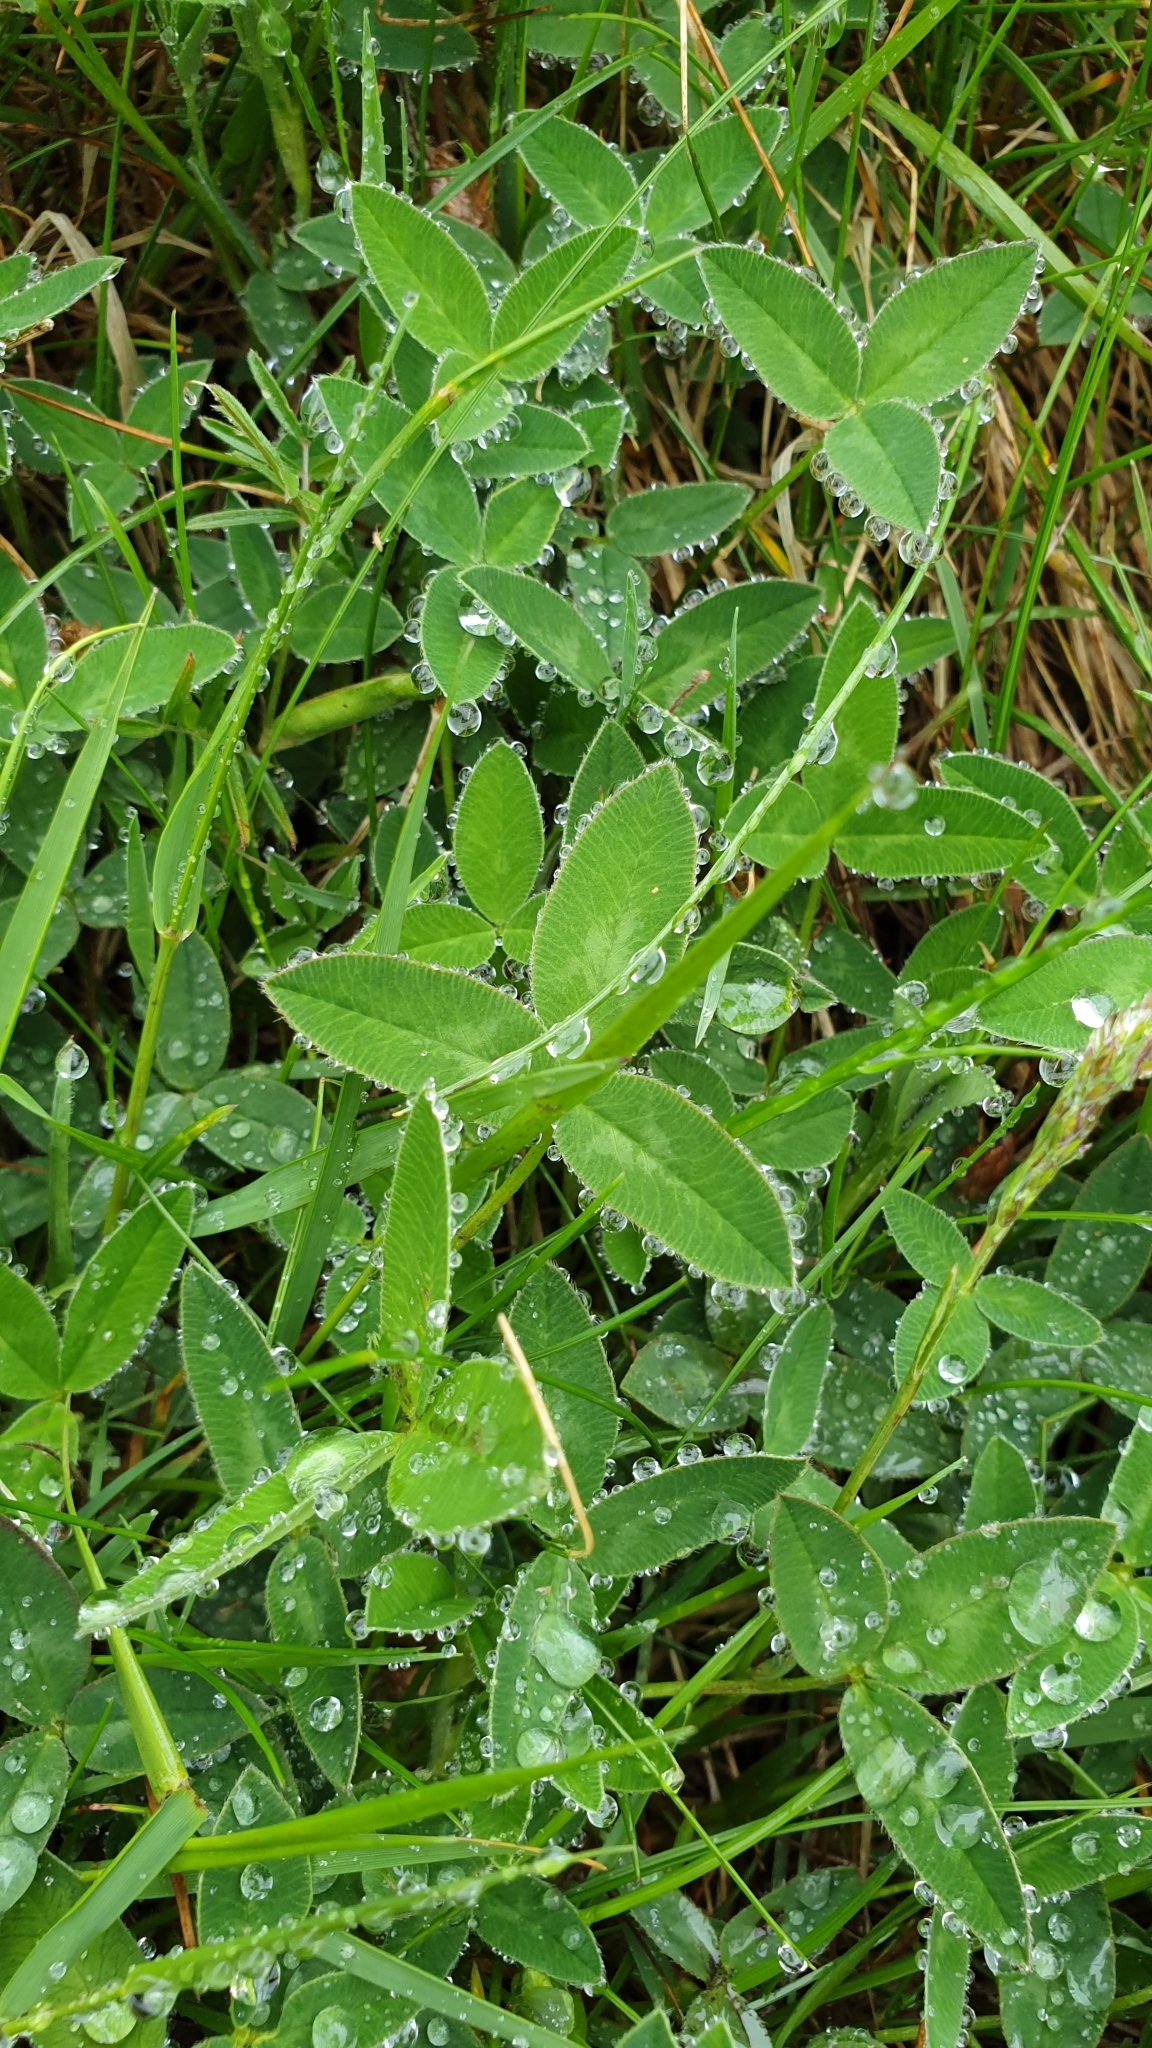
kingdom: Plantae
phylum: Tracheophyta
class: Magnoliopsida
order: Fabales
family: Fabaceae
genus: Trifolium
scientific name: Trifolium medium
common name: Zigzag clover
